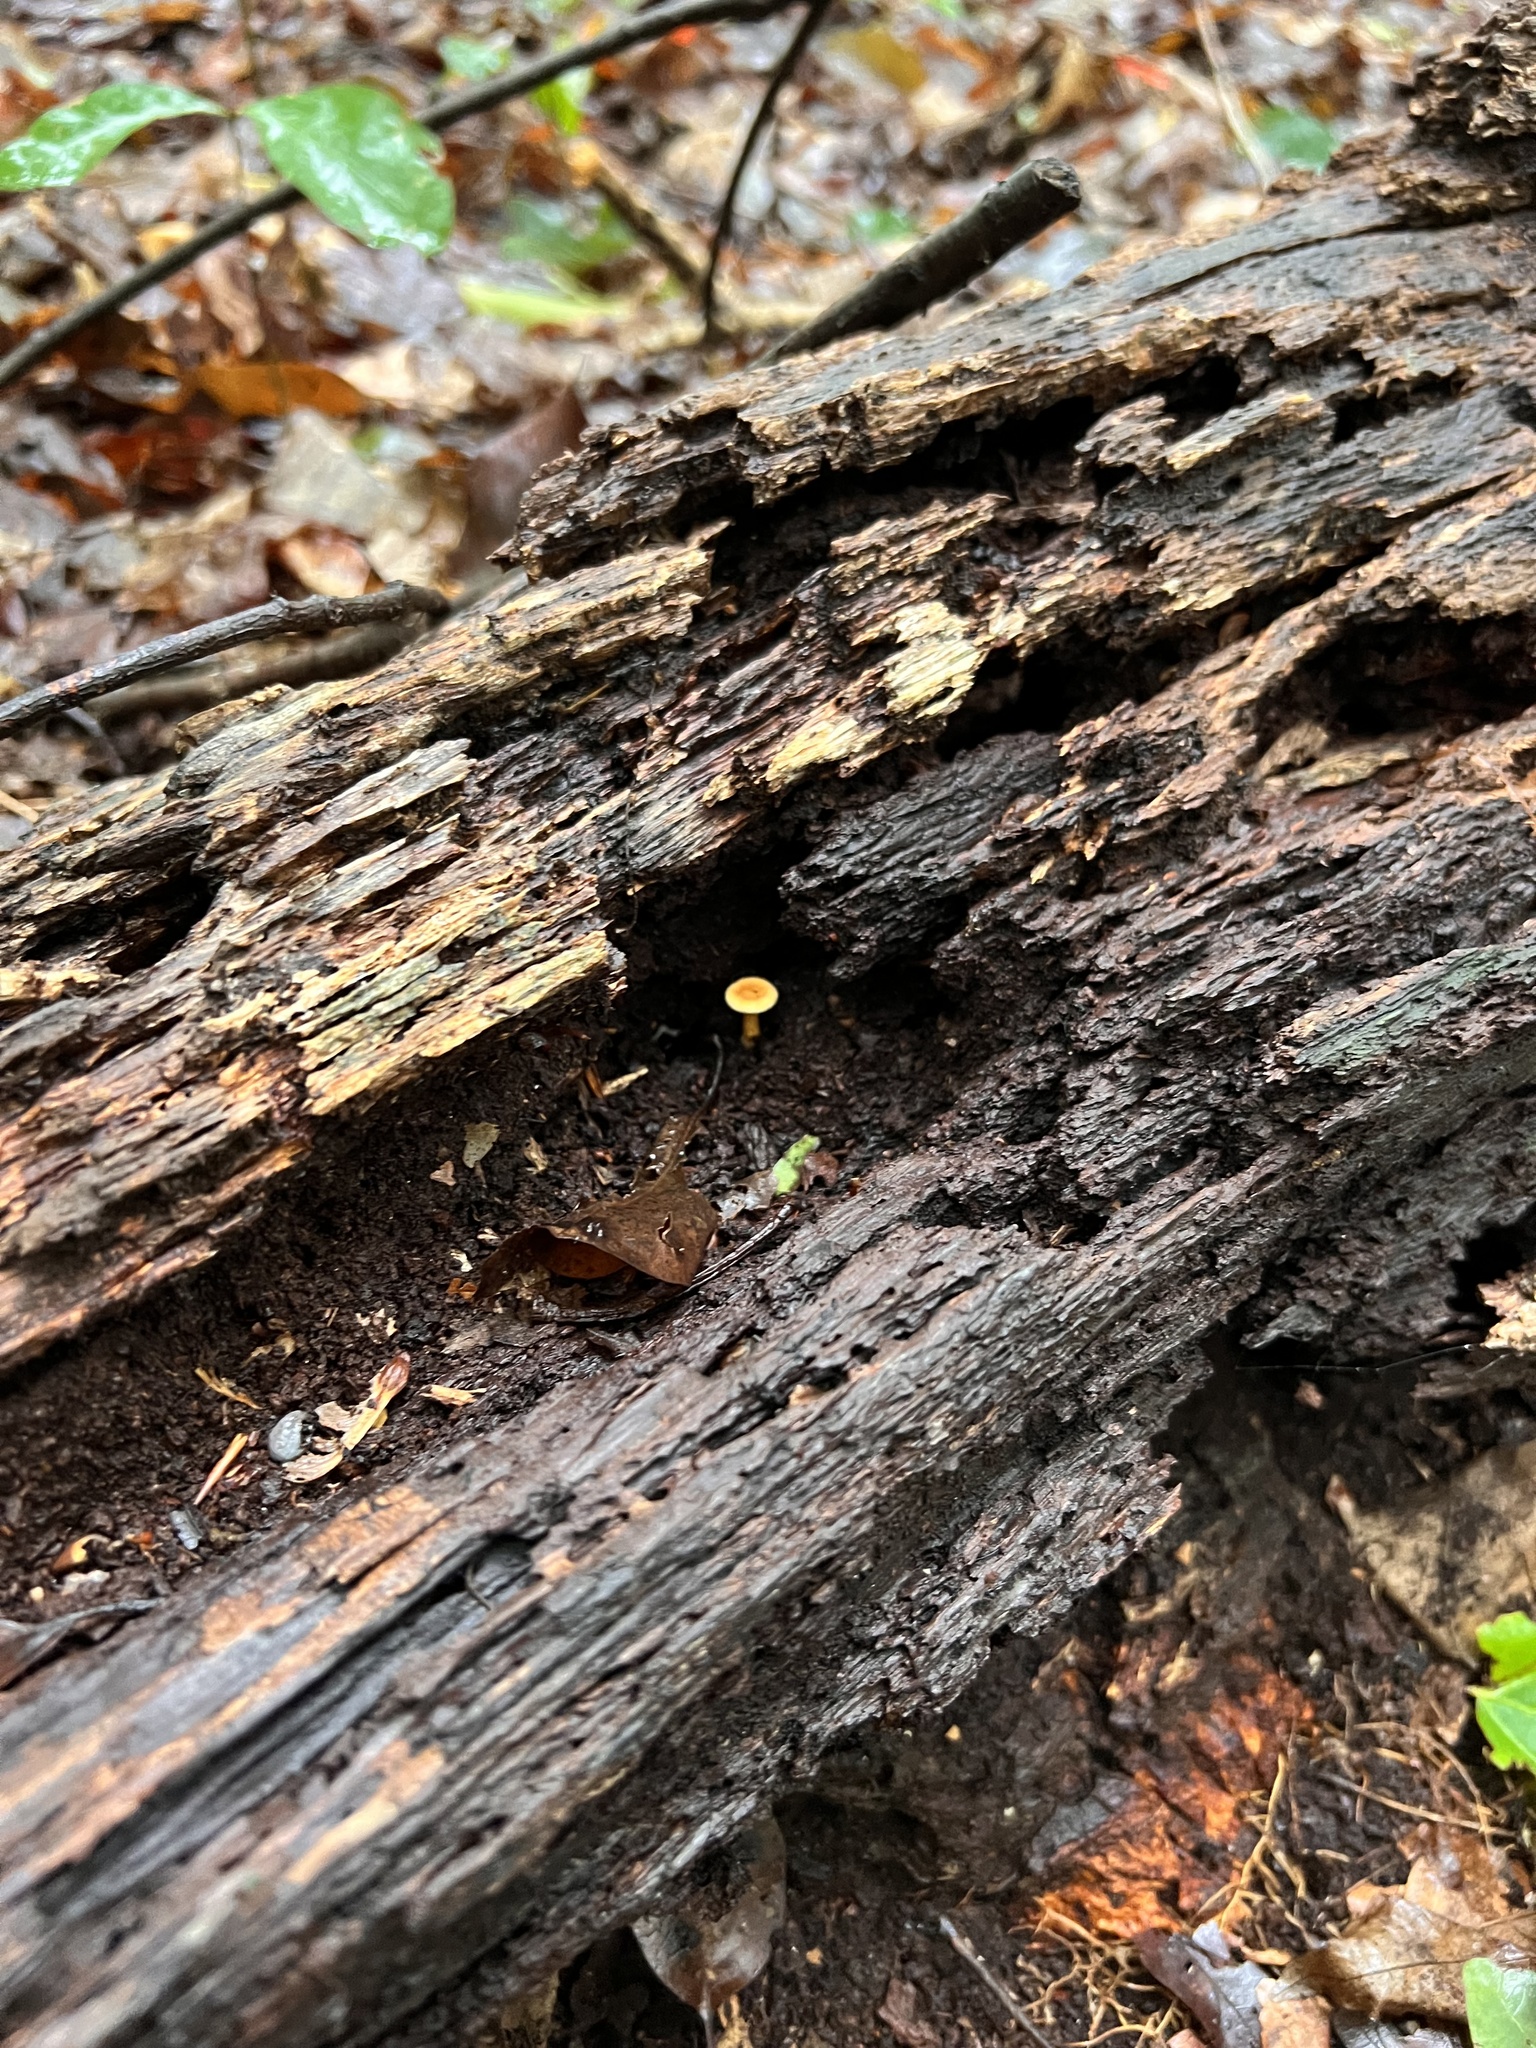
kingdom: Fungi
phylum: Basidiomycota
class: Agaricomycetes
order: Boletales
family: Hygrophoropsidaceae
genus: Hygrophoropsis
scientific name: Hygrophoropsis aurantiaca
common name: False chanterelle
